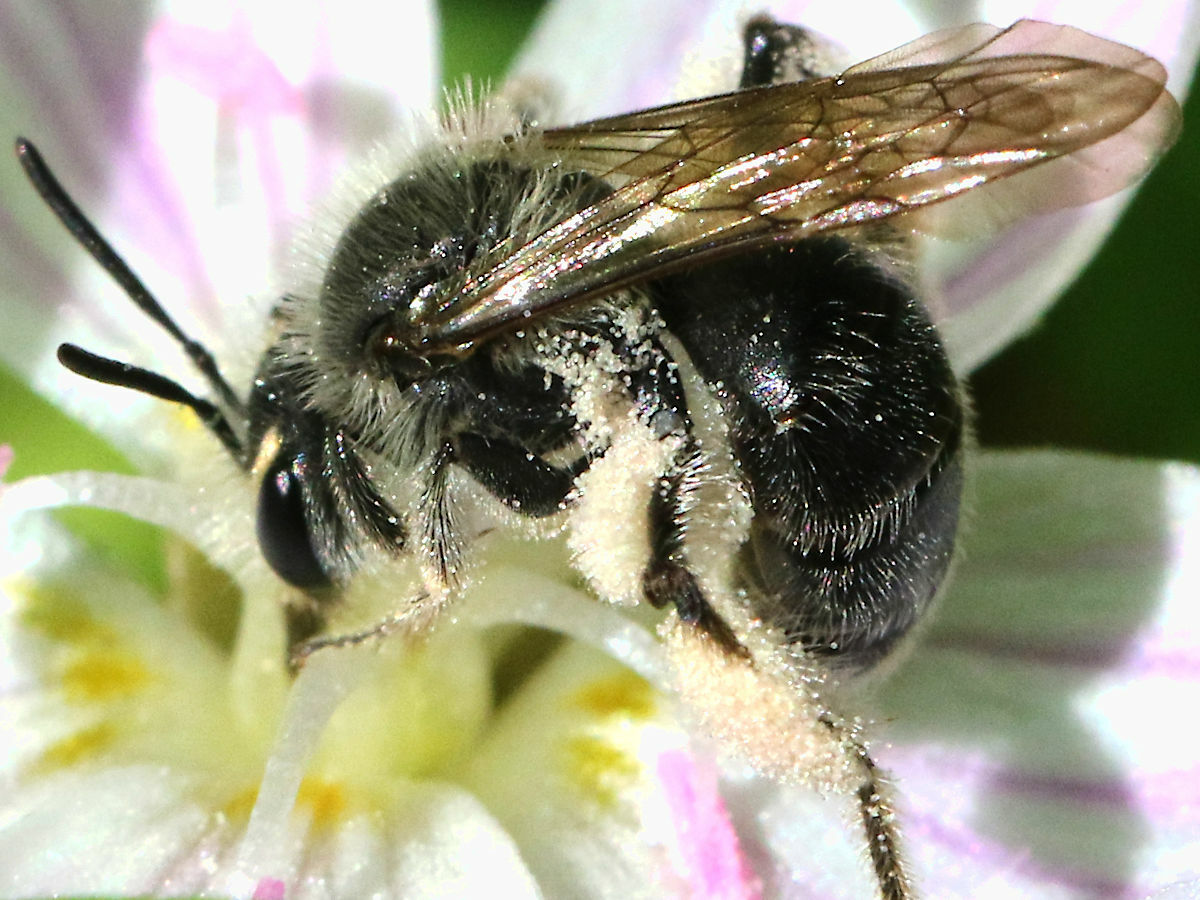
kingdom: Animalia
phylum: Arthropoda
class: Insecta
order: Hymenoptera
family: Andrenidae
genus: Andrena
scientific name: Andrena erigeniae
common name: Spring beauty miner
